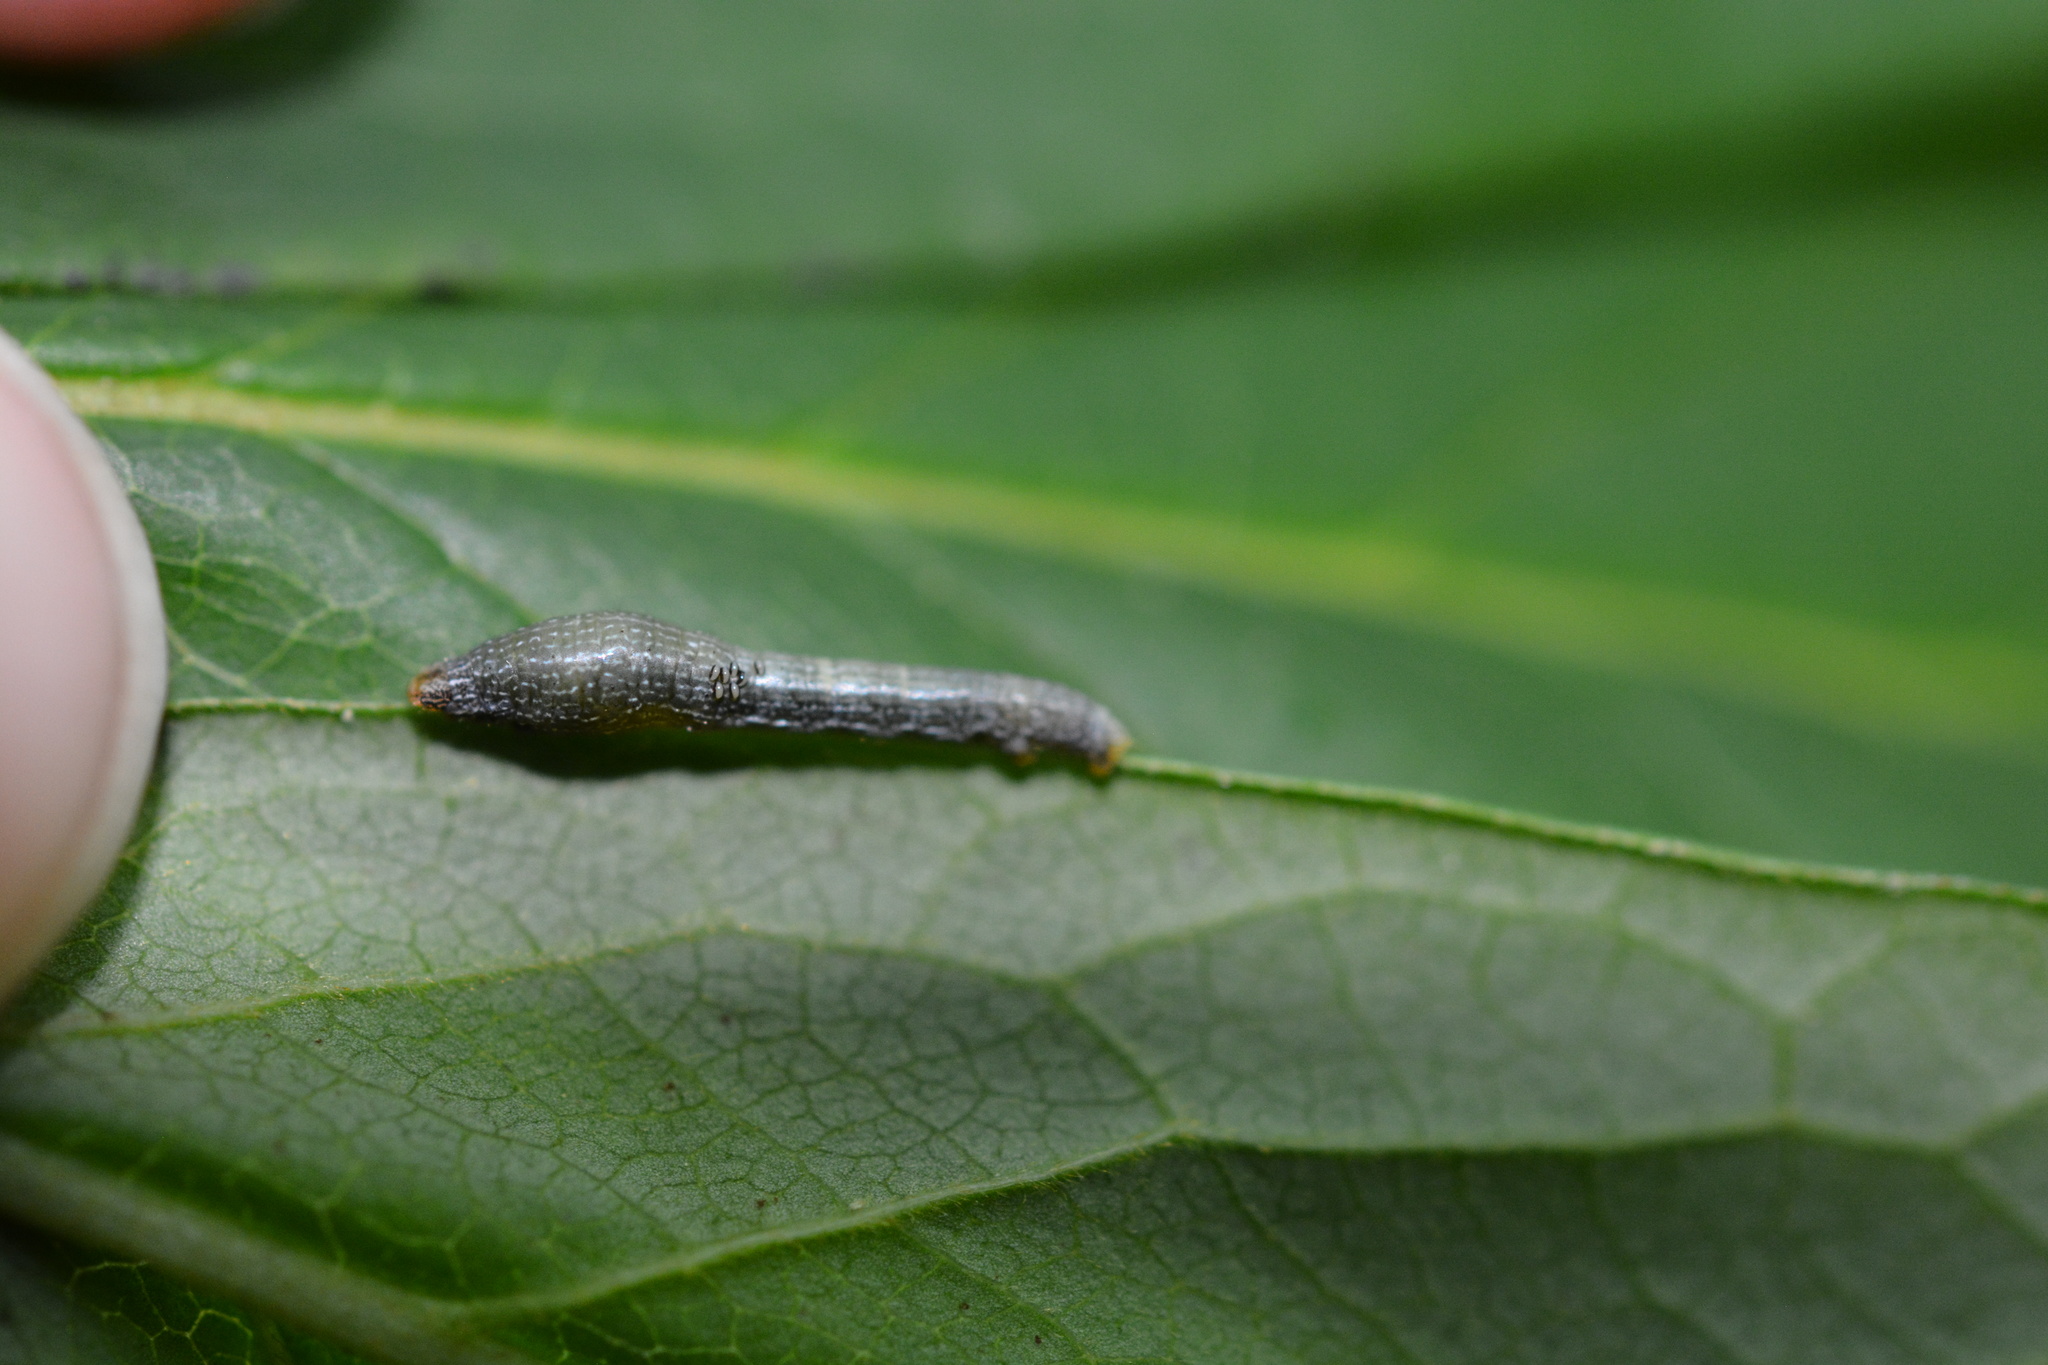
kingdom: Animalia
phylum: Arthropoda
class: Insecta
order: Lepidoptera
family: Geometridae
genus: Epimecis
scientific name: Epimecis hortaria
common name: Tulip-tree beauty
